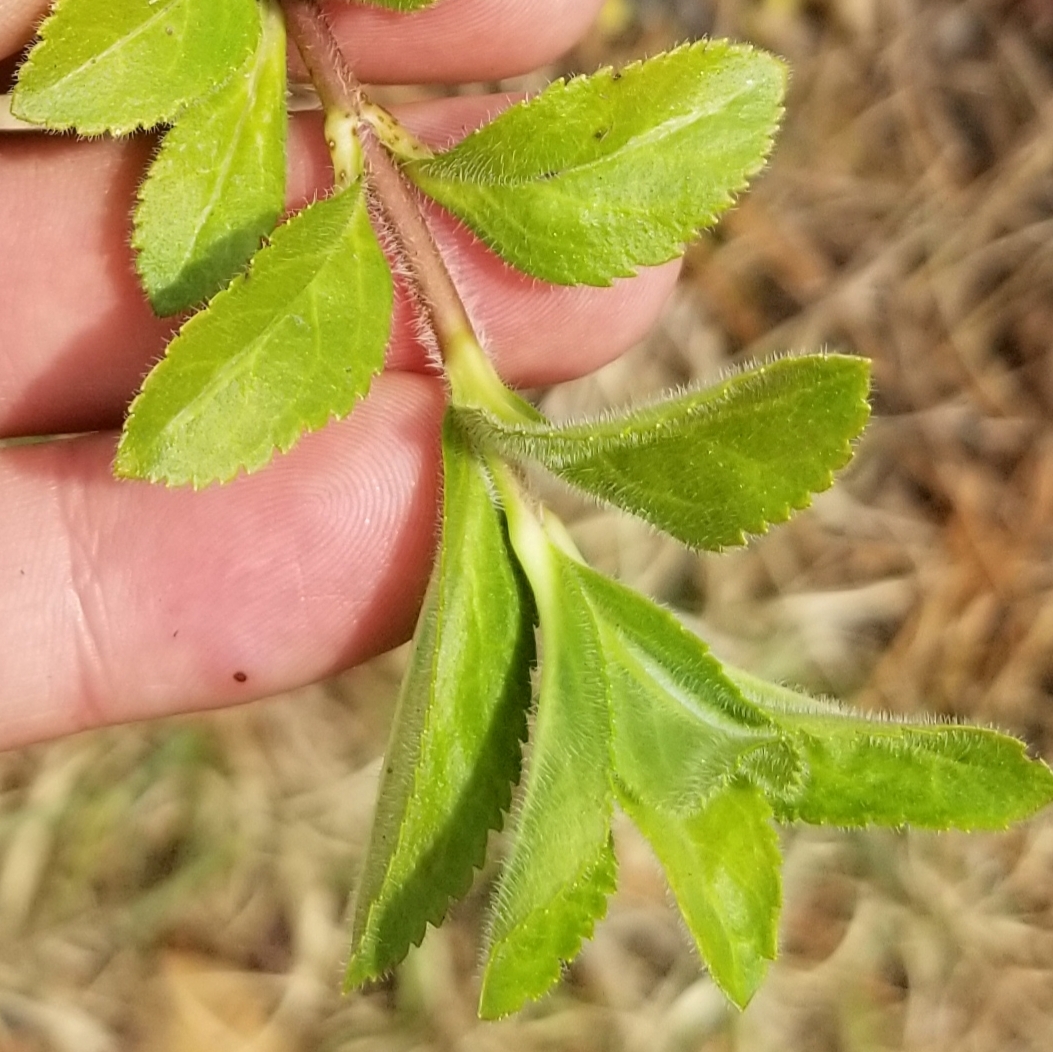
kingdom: Plantae
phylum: Tracheophyta
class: Magnoliopsida
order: Lamiales
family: Plantaginaceae
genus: Veronica
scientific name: Veronica officinalis
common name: Common speedwell
